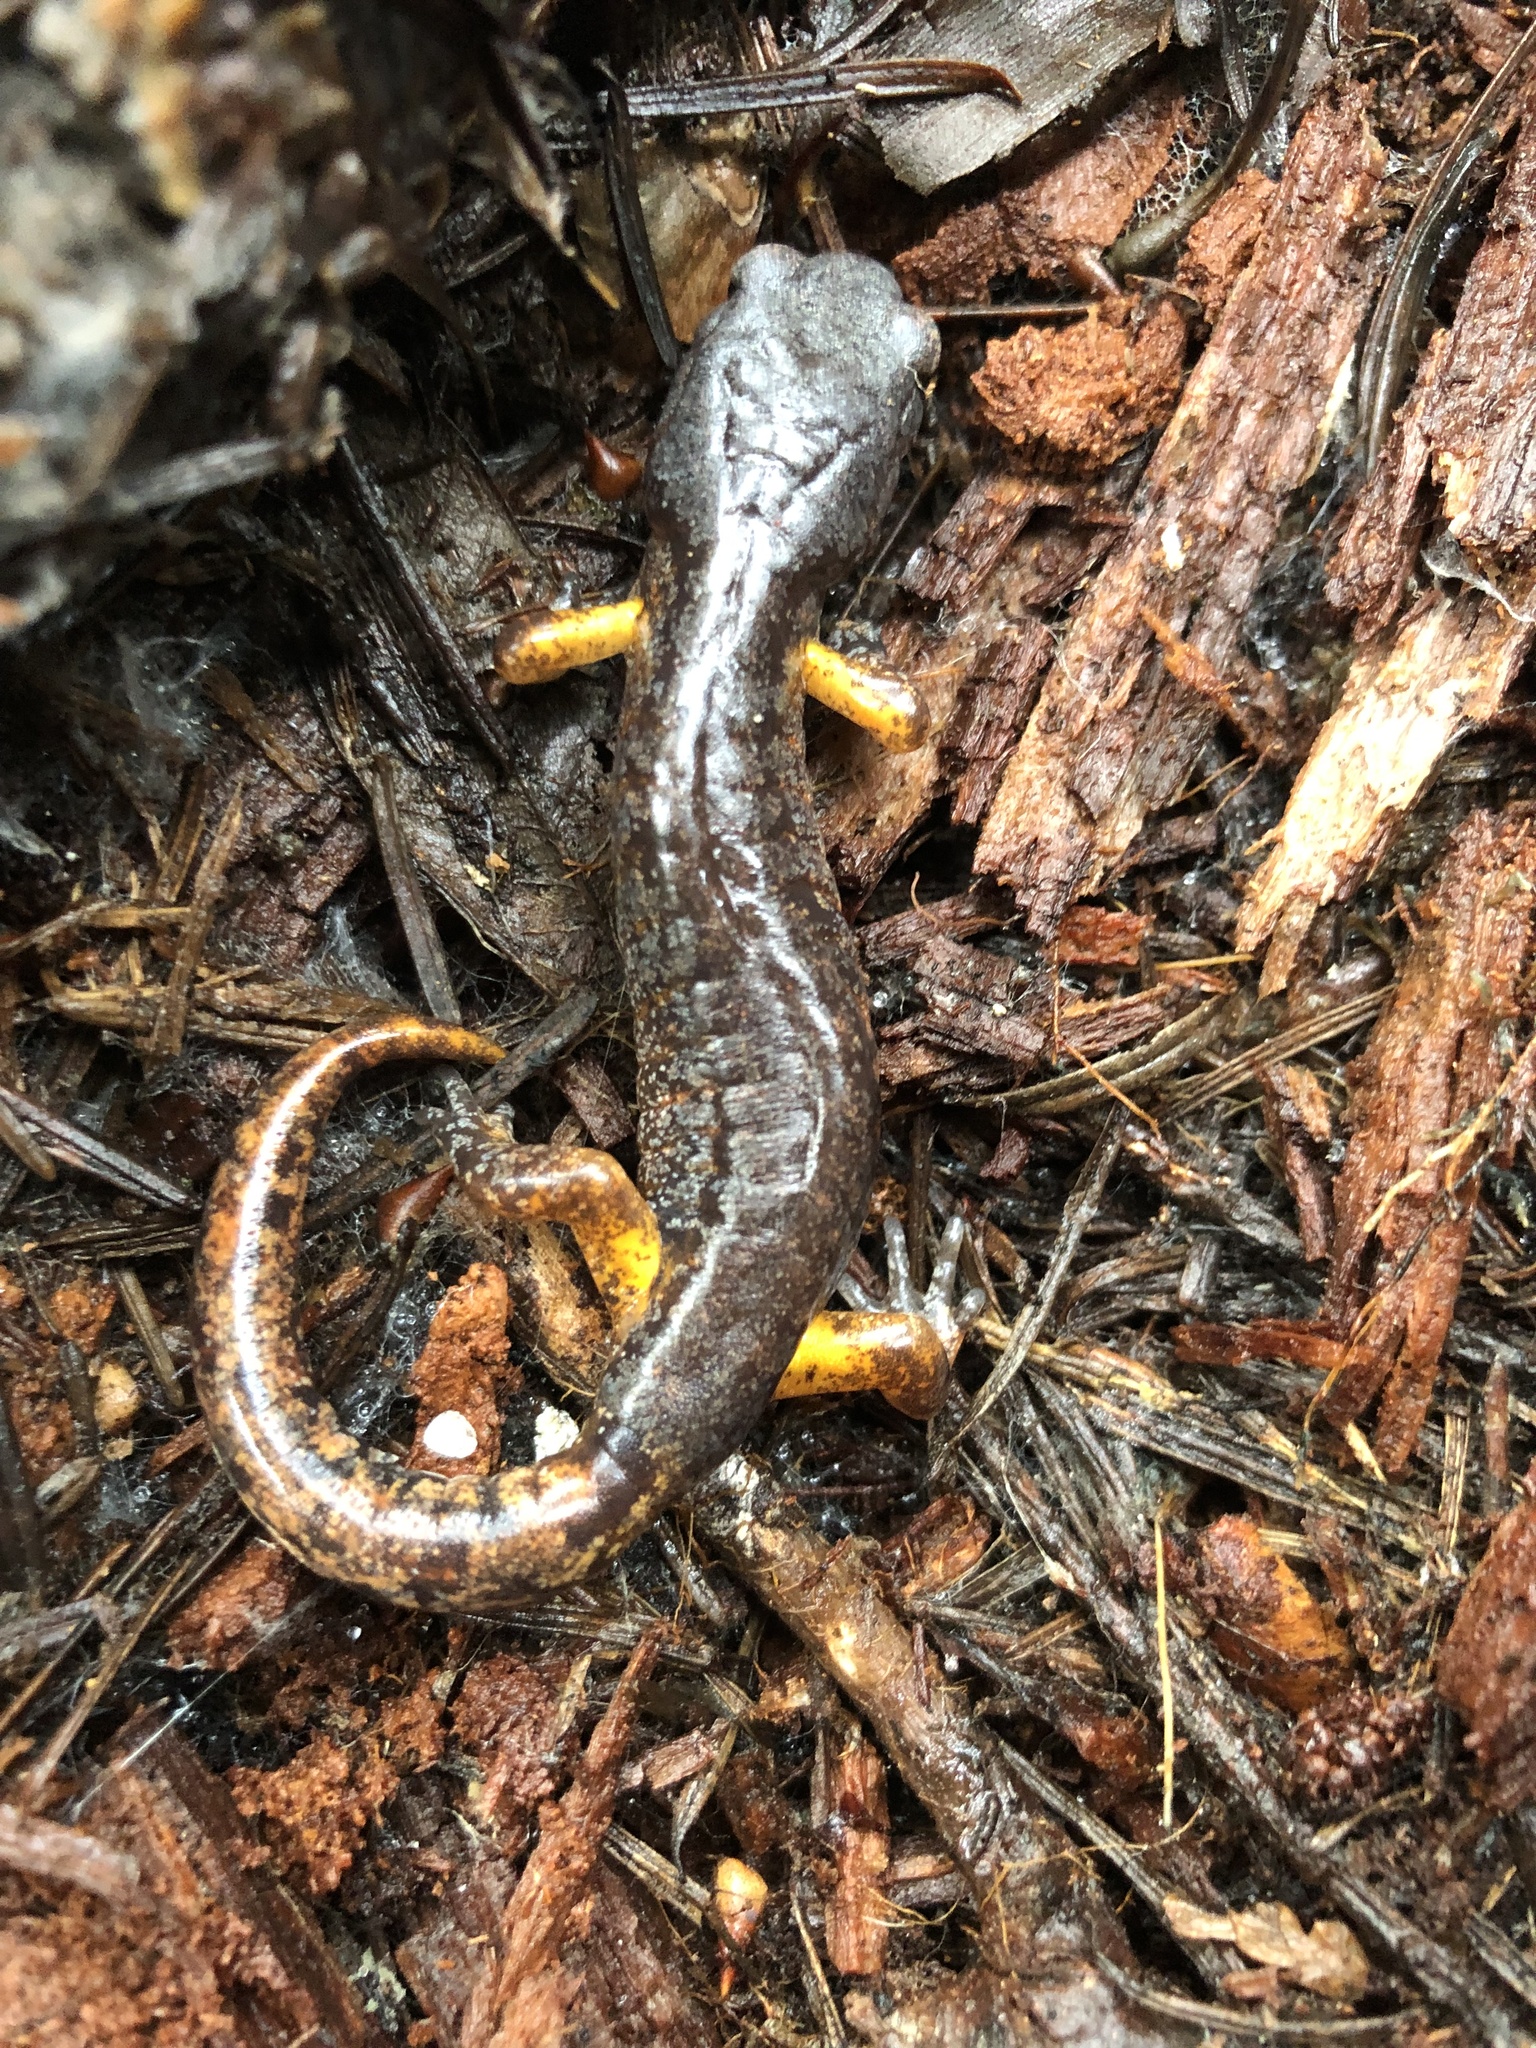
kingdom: Animalia
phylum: Chordata
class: Amphibia
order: Caudata
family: Plethodontidae
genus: Ensatina
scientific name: Ensatina eschscholtzii
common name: Ensatina
